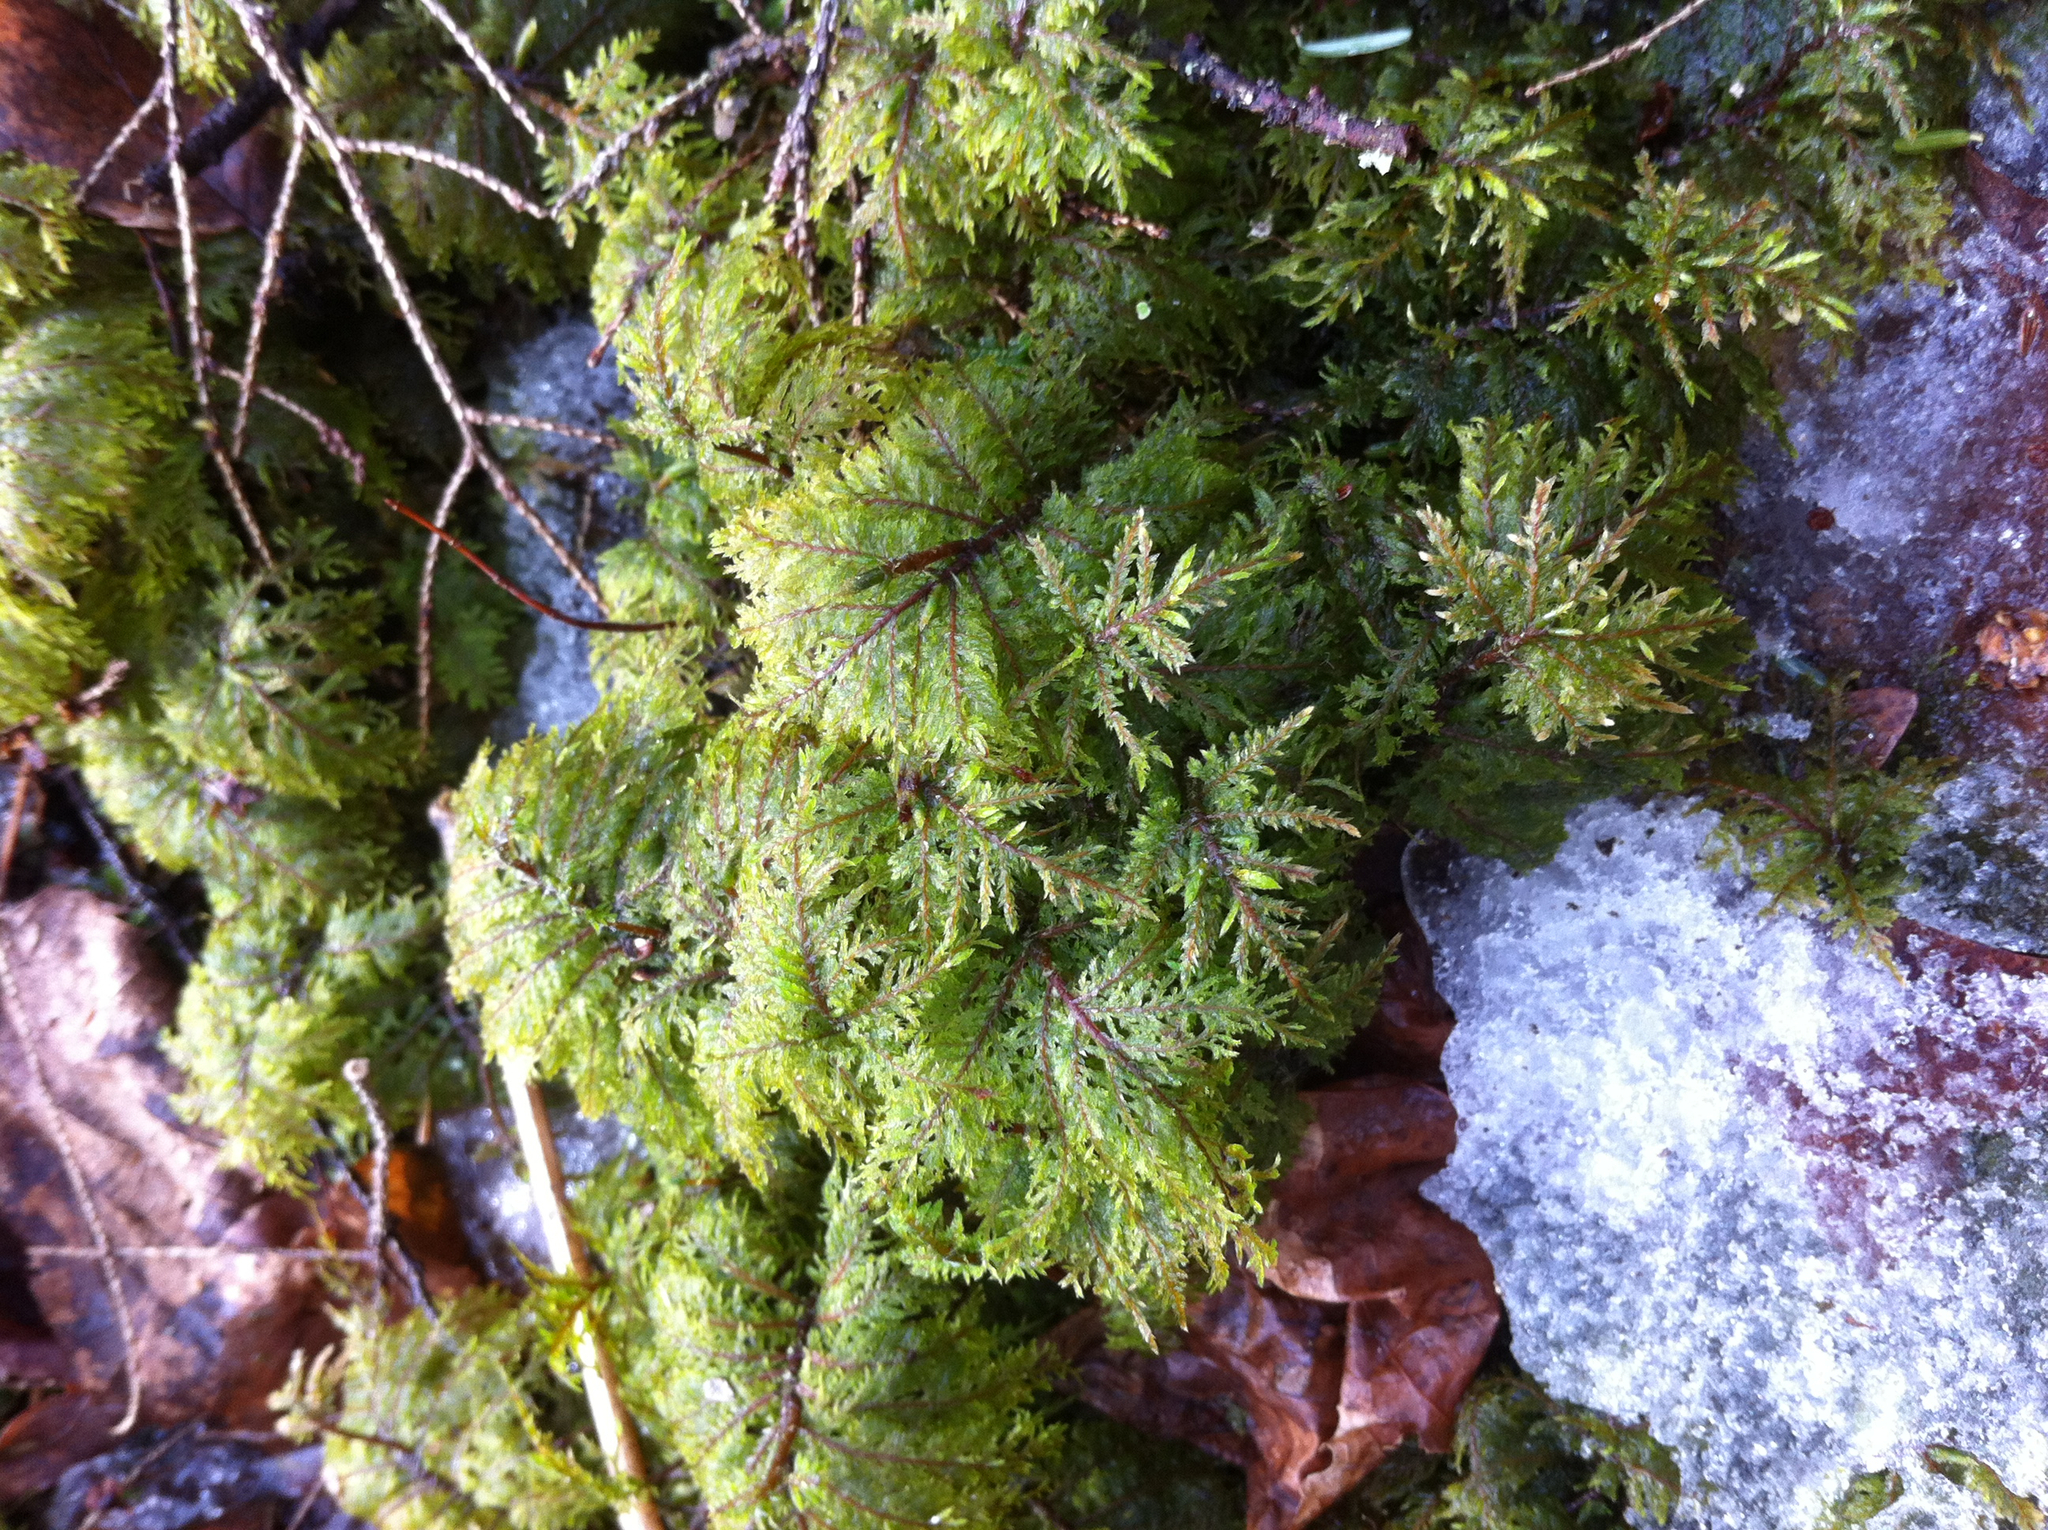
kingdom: Plantae
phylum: Bryophyta
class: Bryopsida
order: Hypnales
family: Hylocomiaceae
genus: Hylocomium
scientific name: Hylocomium splendens
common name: Stairstep moss
